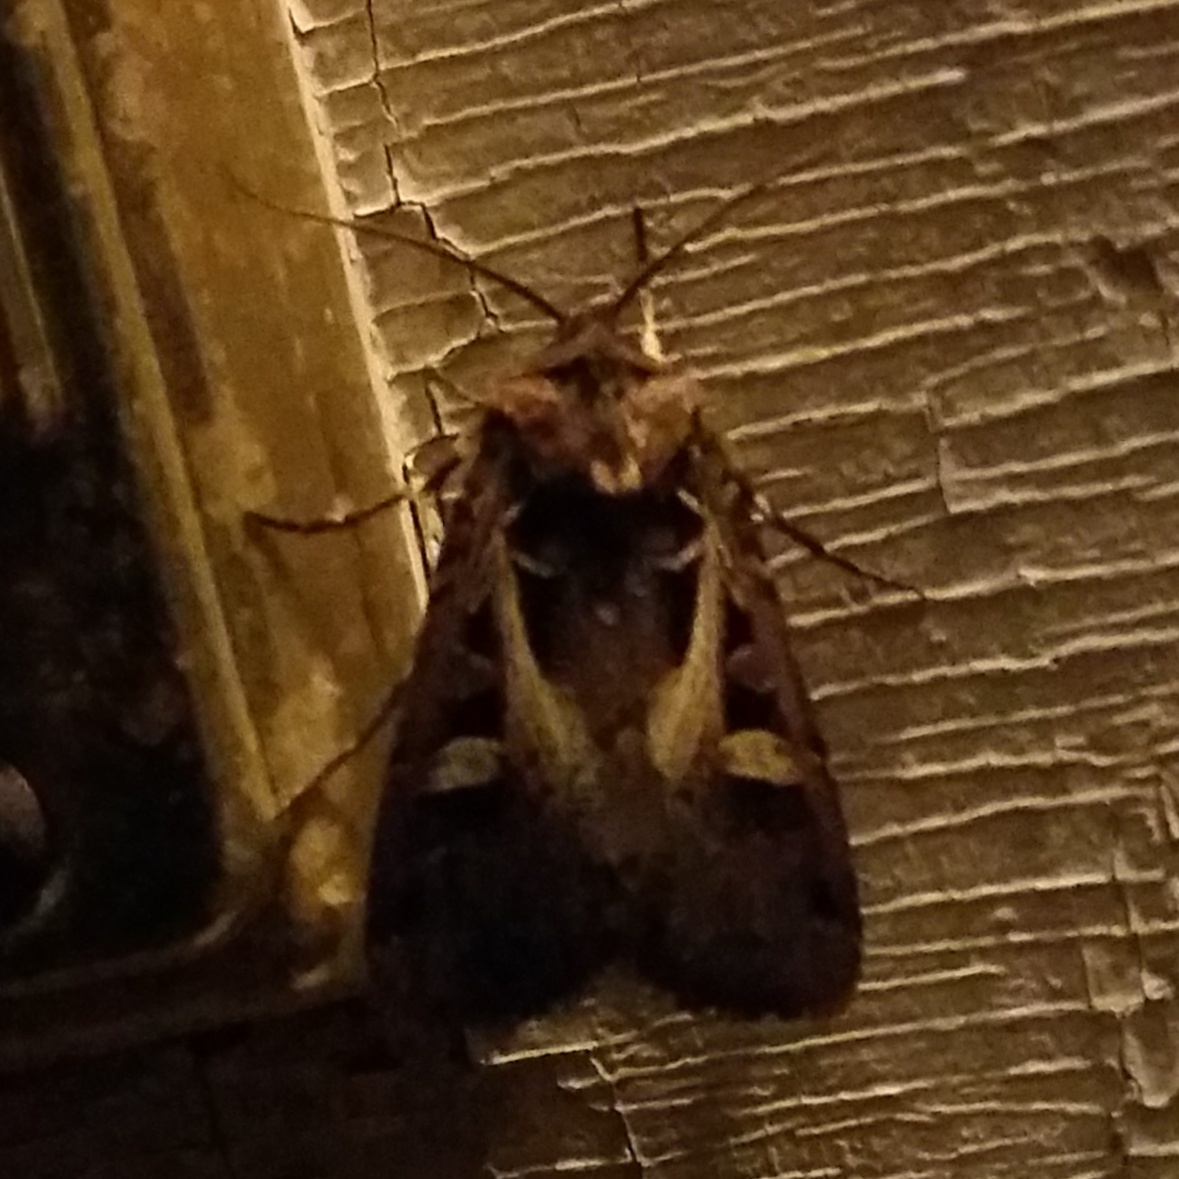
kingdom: Animalia
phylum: Arthropoda
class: Insecta
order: Lepidoptera
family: Noctuidae
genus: Feltia
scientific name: Feltia herilis
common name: Master's dart
